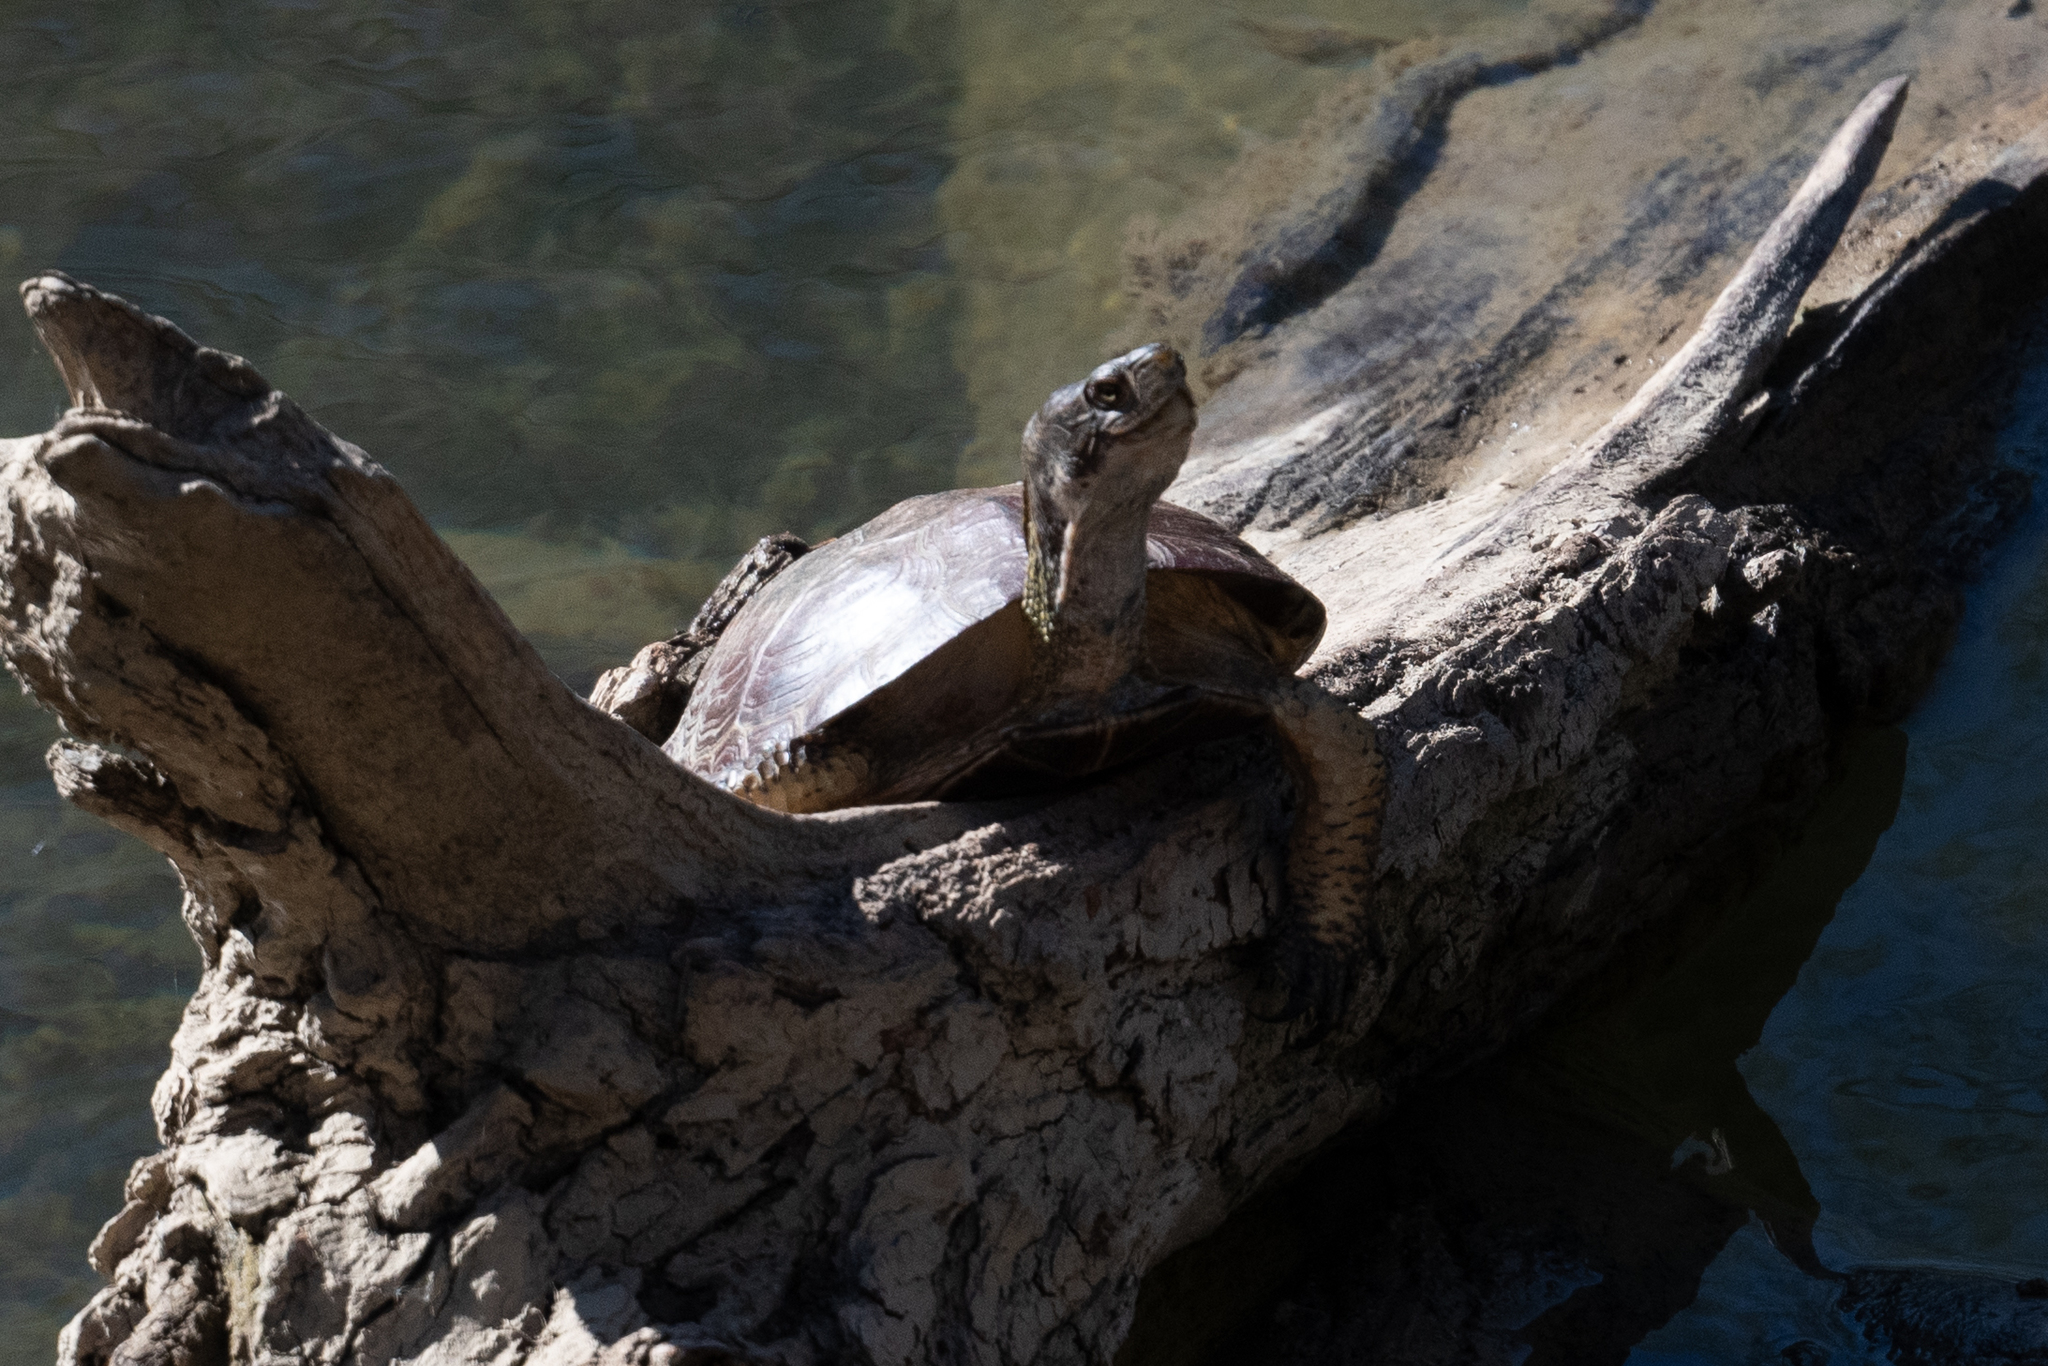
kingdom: Animalia
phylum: Chordata
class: Testudines
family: Emydidae
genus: Actinemys
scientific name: Actinemys marmorata
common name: Western pond turtle
